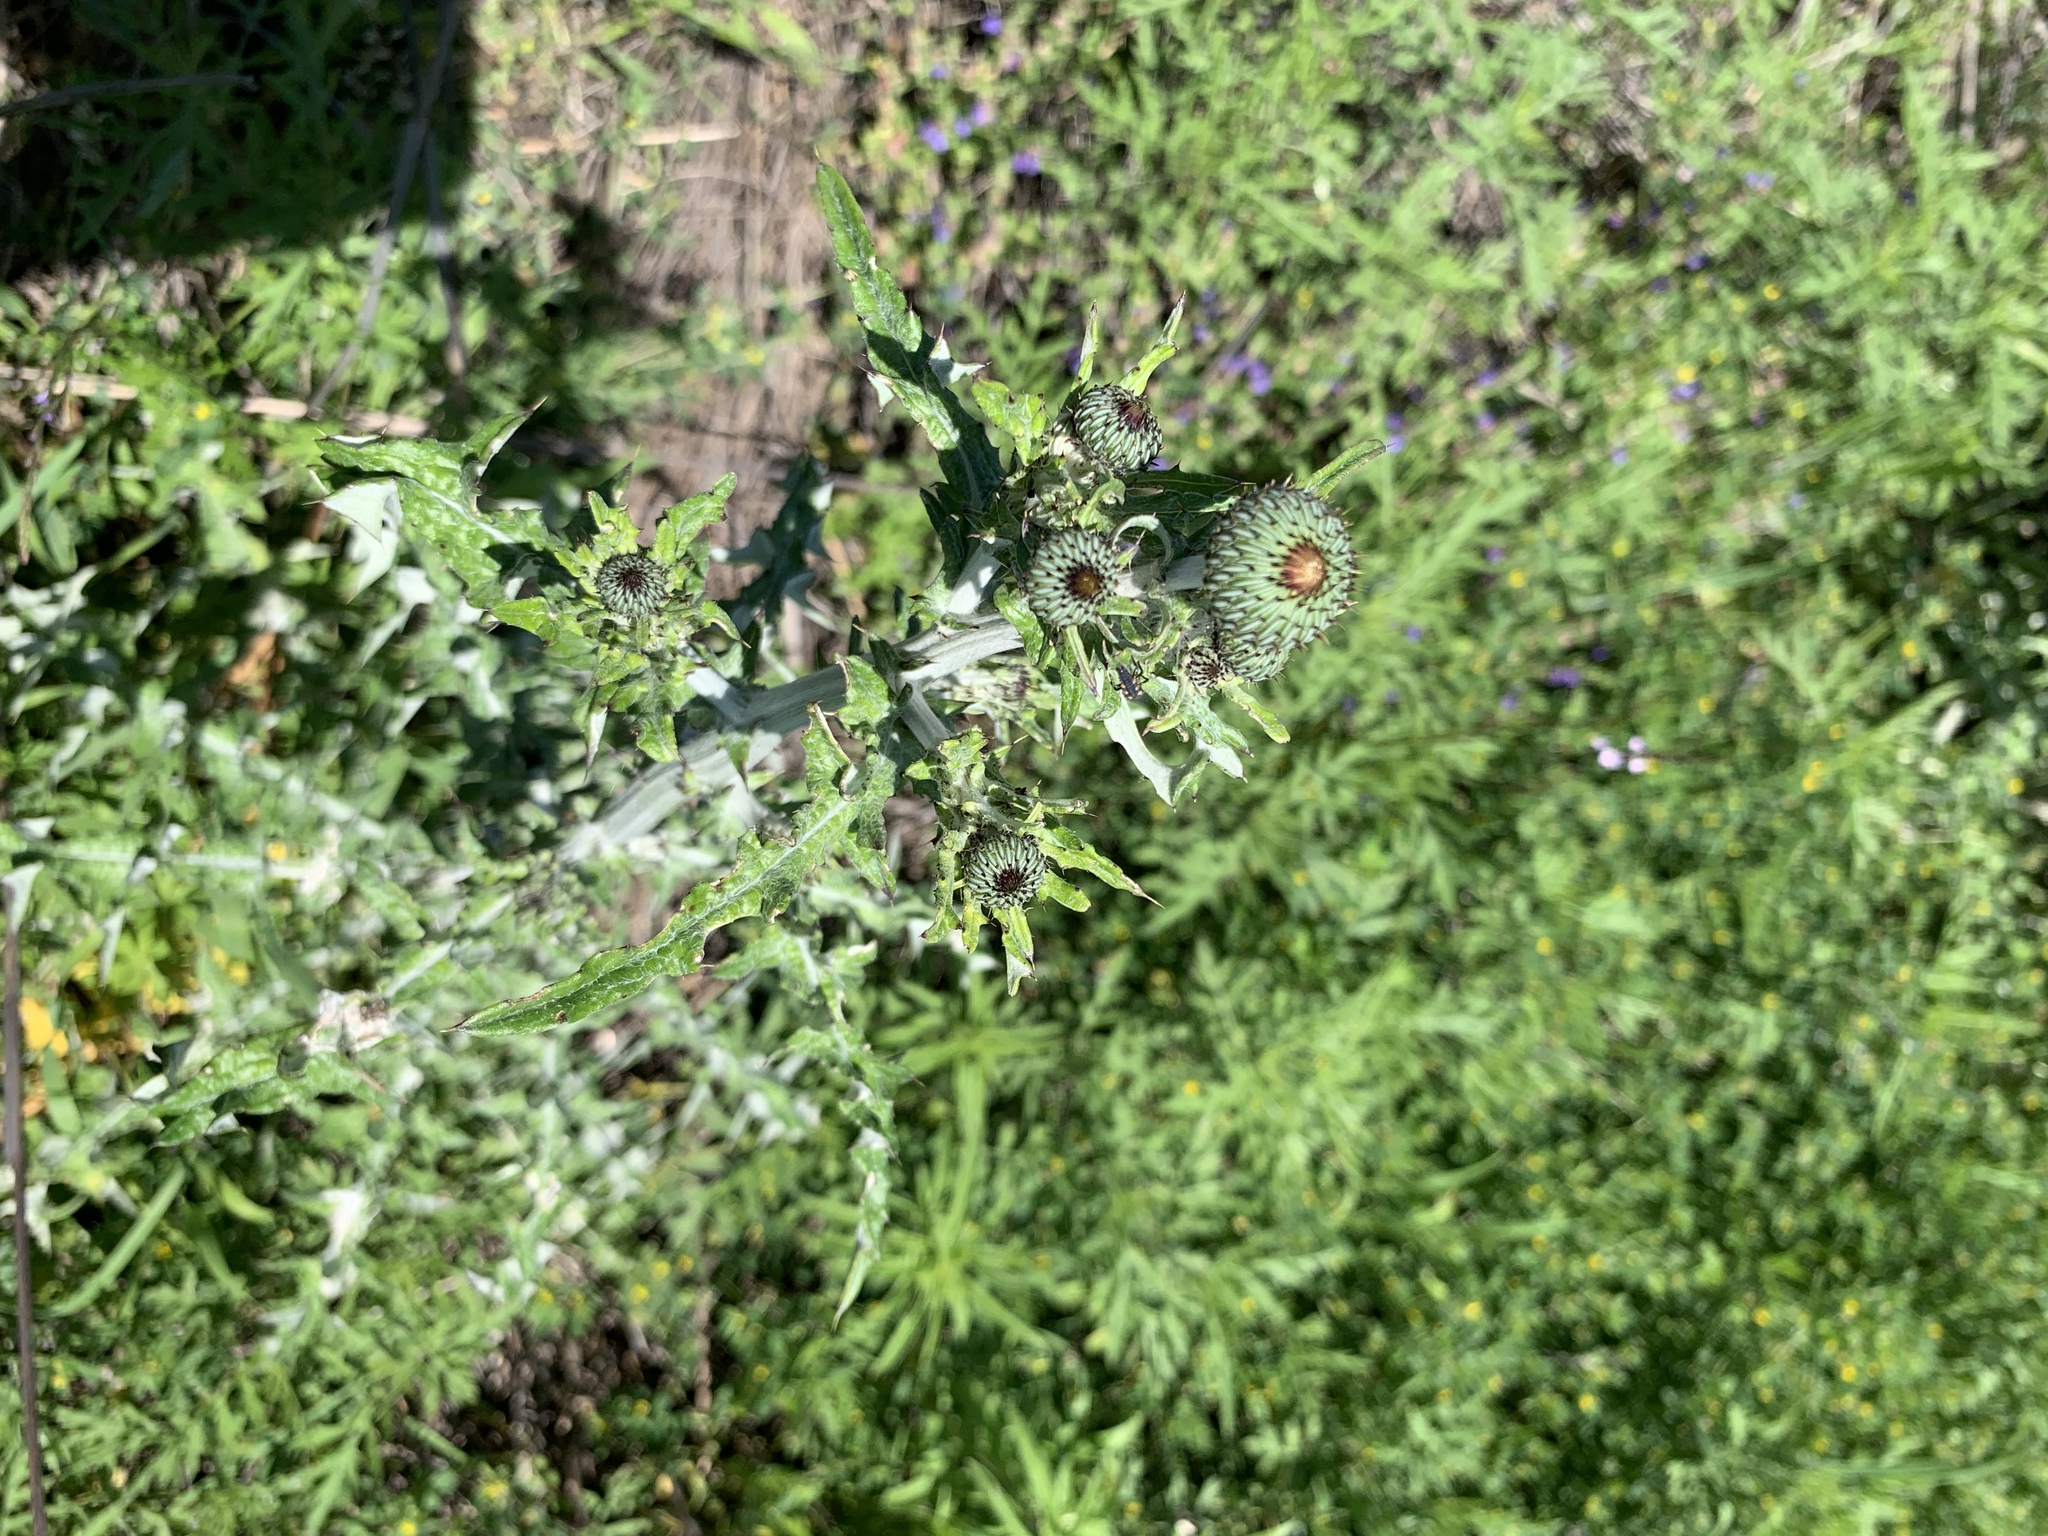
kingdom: Plantae
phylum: Tracheophyta
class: Magnoliopsida
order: Asterales
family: Asteraceae
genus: Cirsium
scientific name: Cirsium texanum
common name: Texas purple thistle
